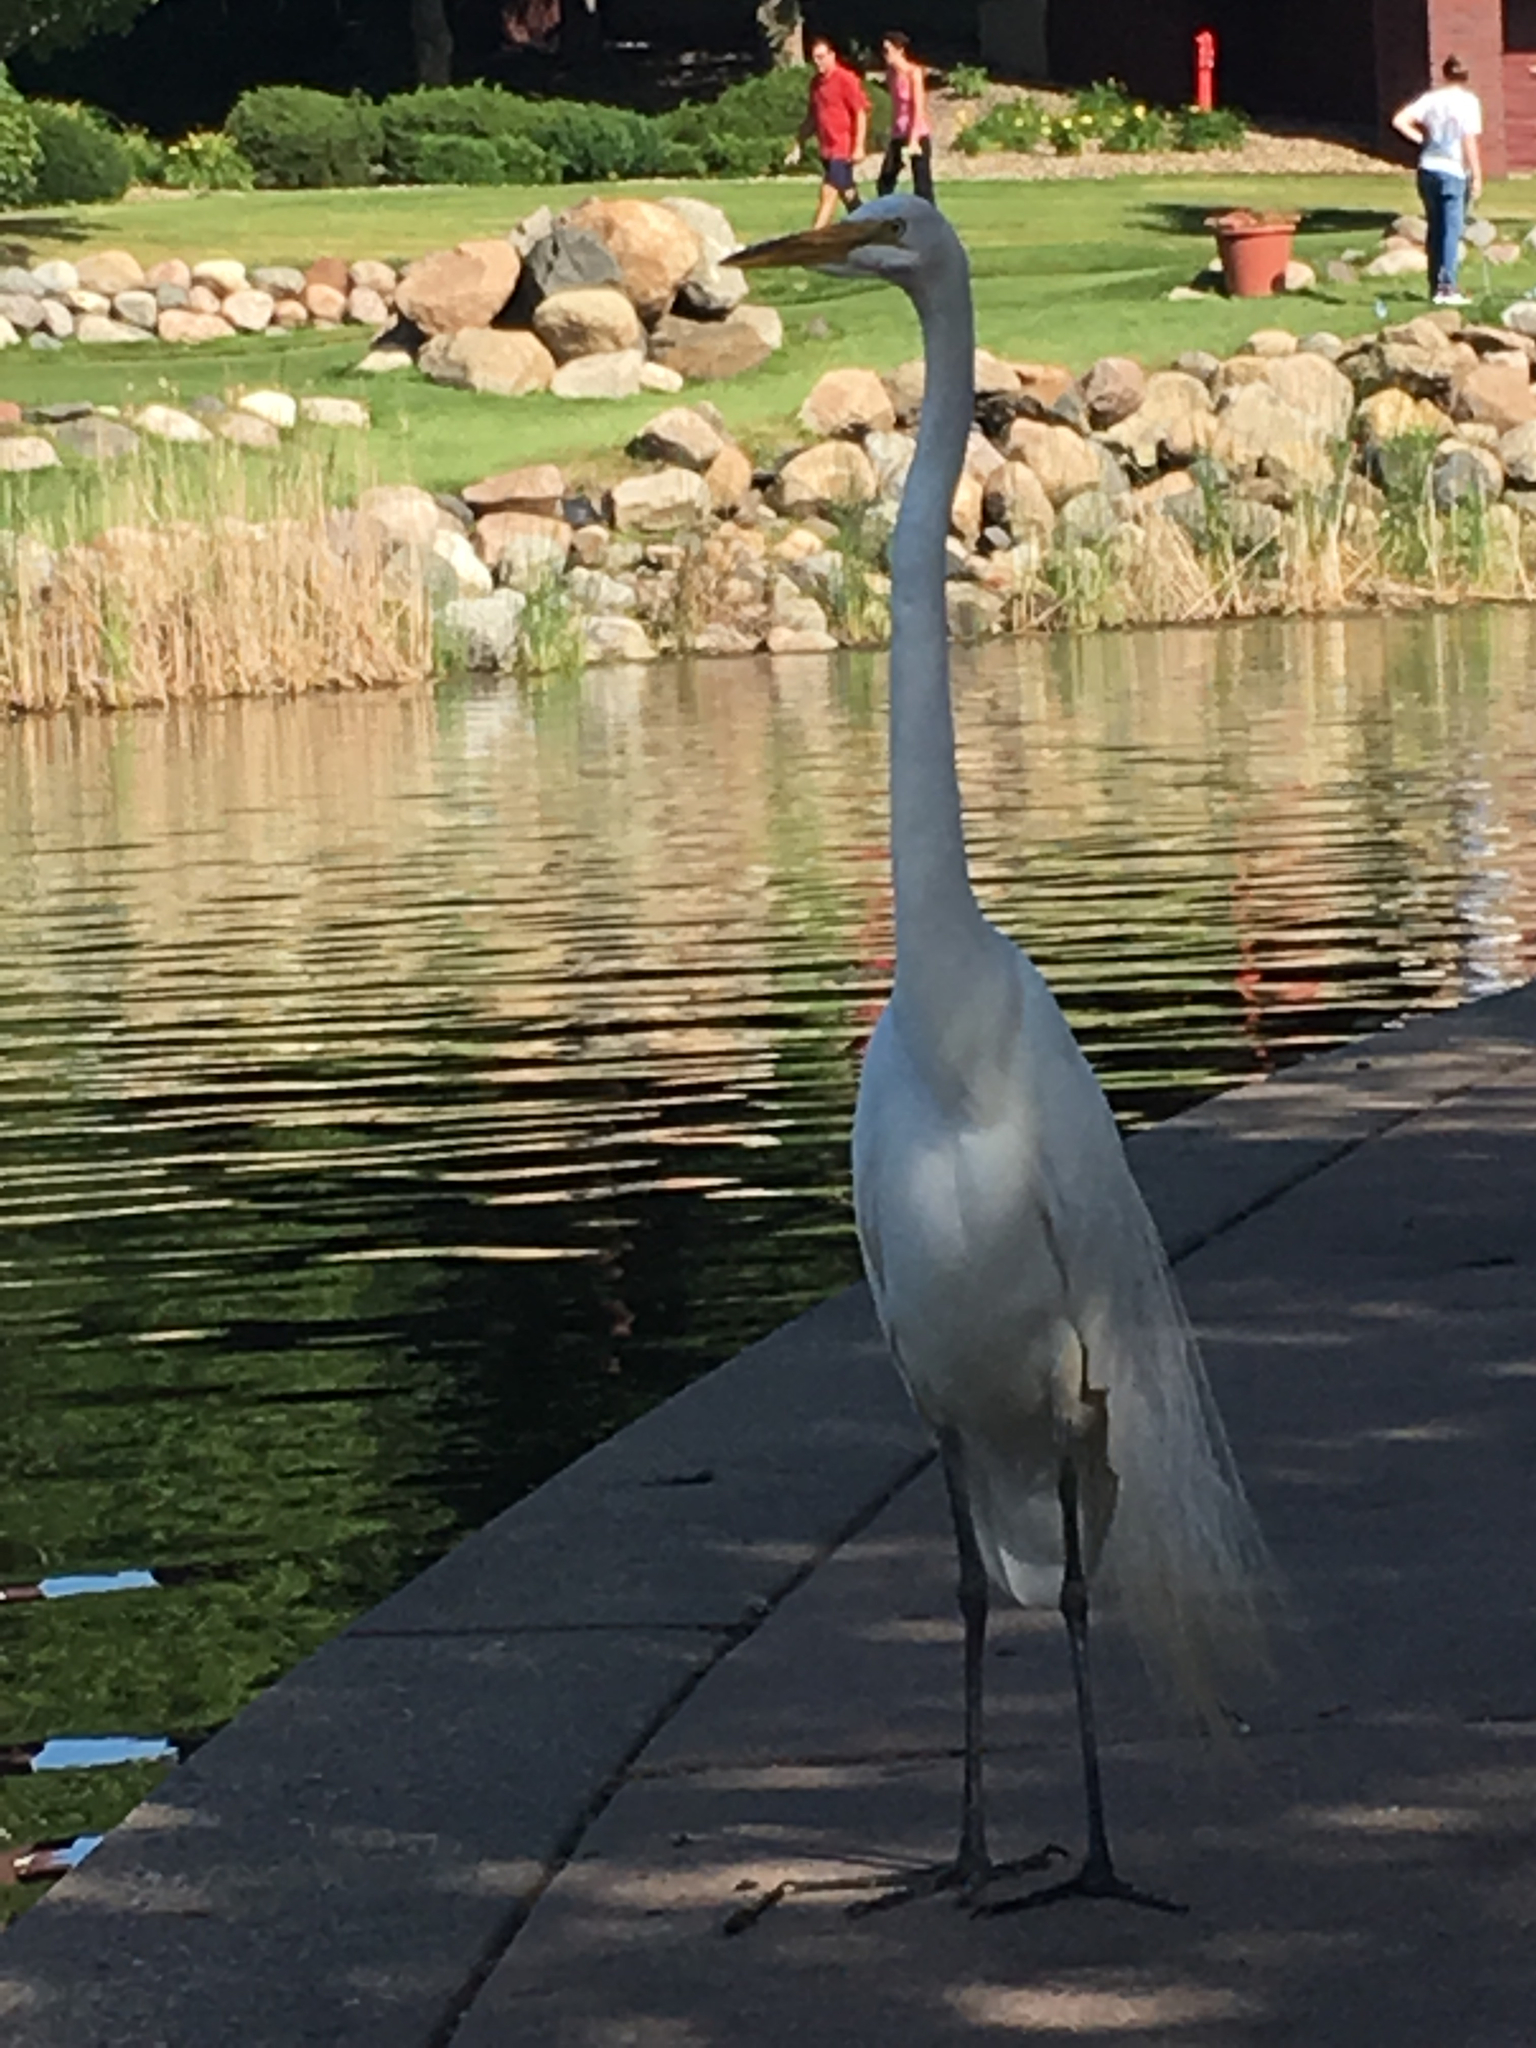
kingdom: Animalia
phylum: Chordata
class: Aves
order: Pelecaniformes
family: Ardeidae
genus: Ardea
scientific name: Ardea alba
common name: Great egret
